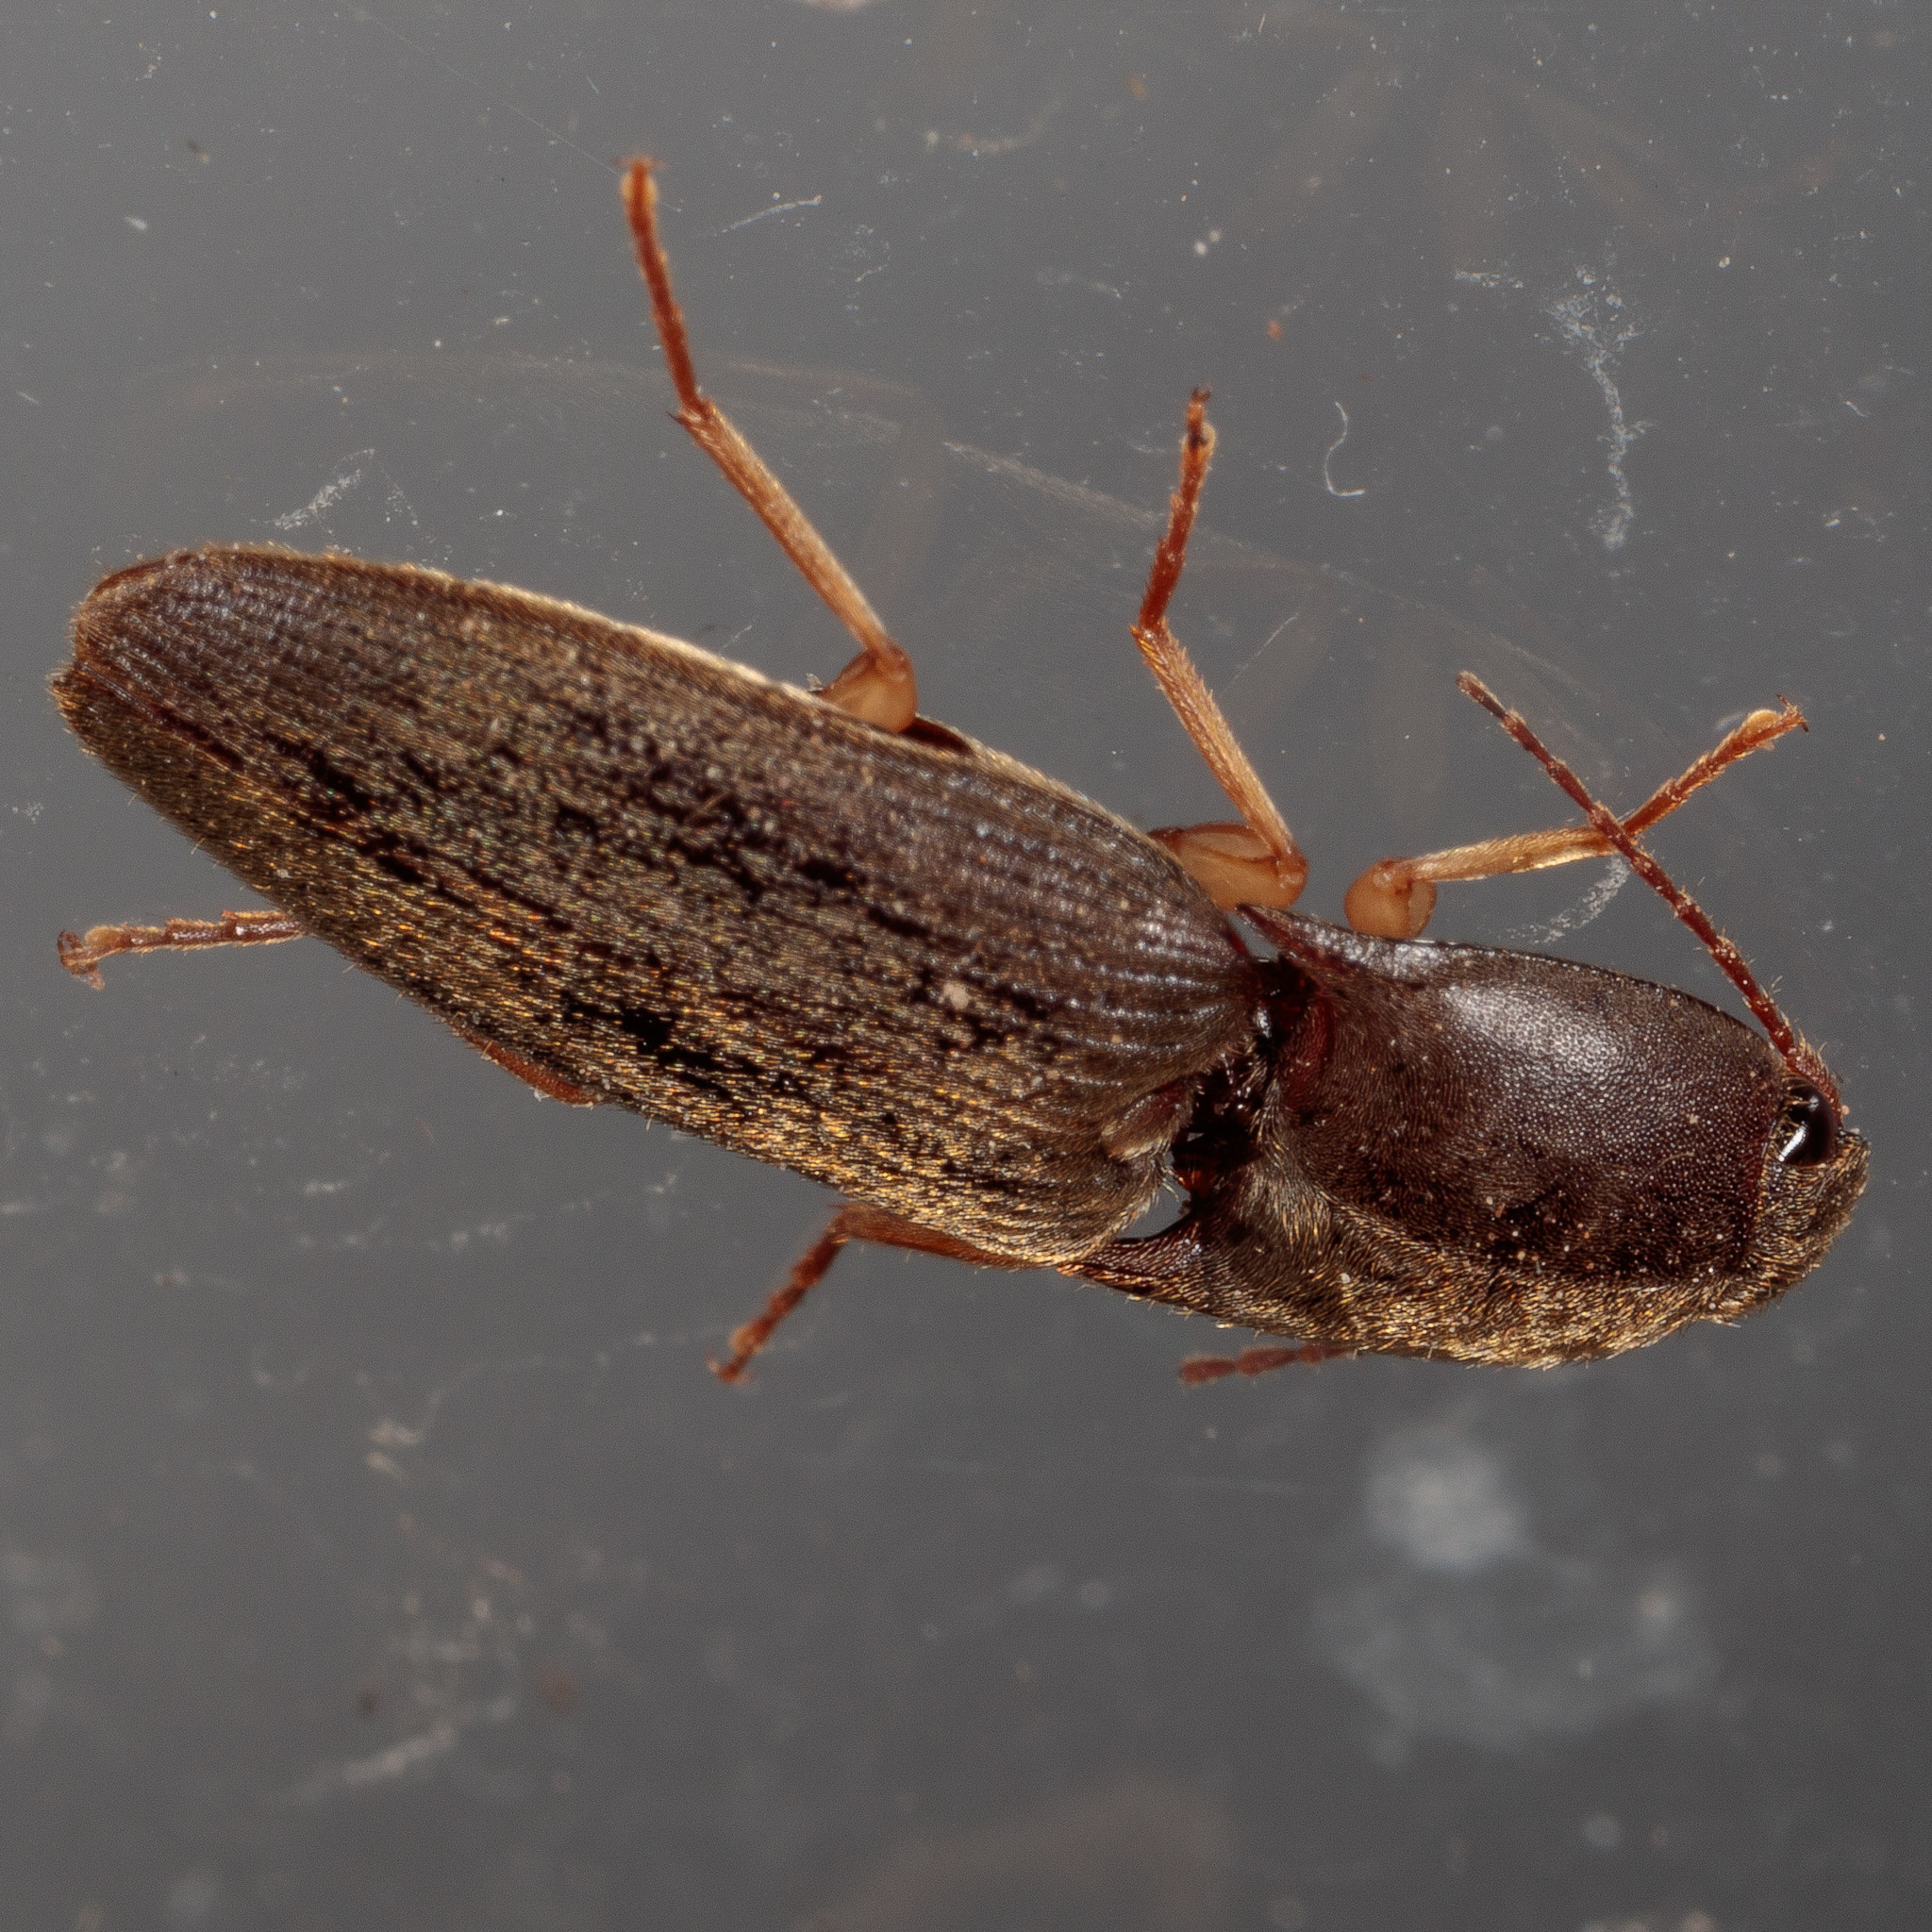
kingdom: Animalia
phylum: Arthropoda
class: Insecta
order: Coleoptera
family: Elateridae
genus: Conoderus
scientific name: Conoderus exsul
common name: Click beetle
